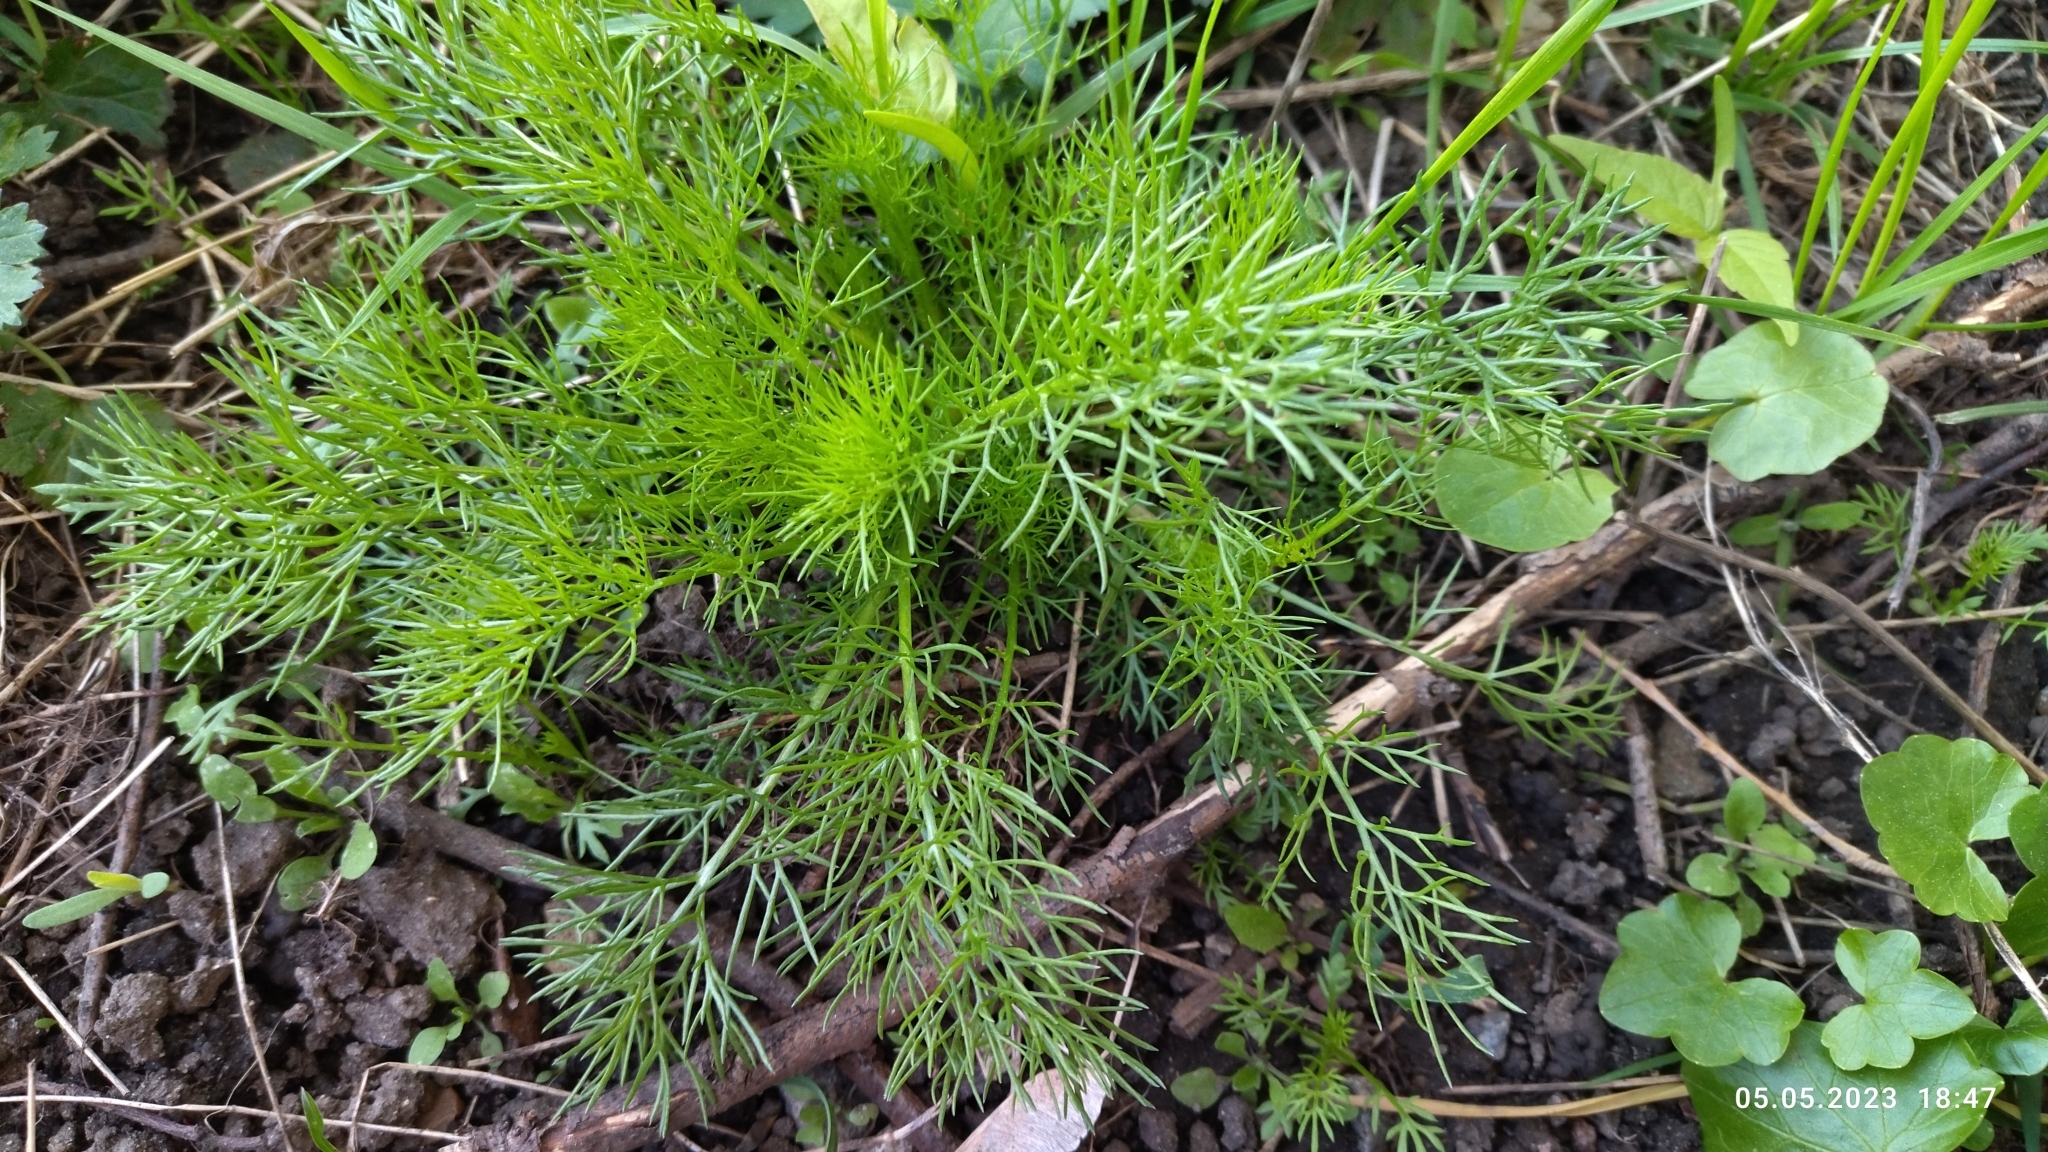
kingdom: Plantae
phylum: Tracheophyta
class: Magnoliopsida
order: Asterales
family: Asteraceae
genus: Tripleurospermum
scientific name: Tripleurospermum inodorum
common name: Scentless mayweed
